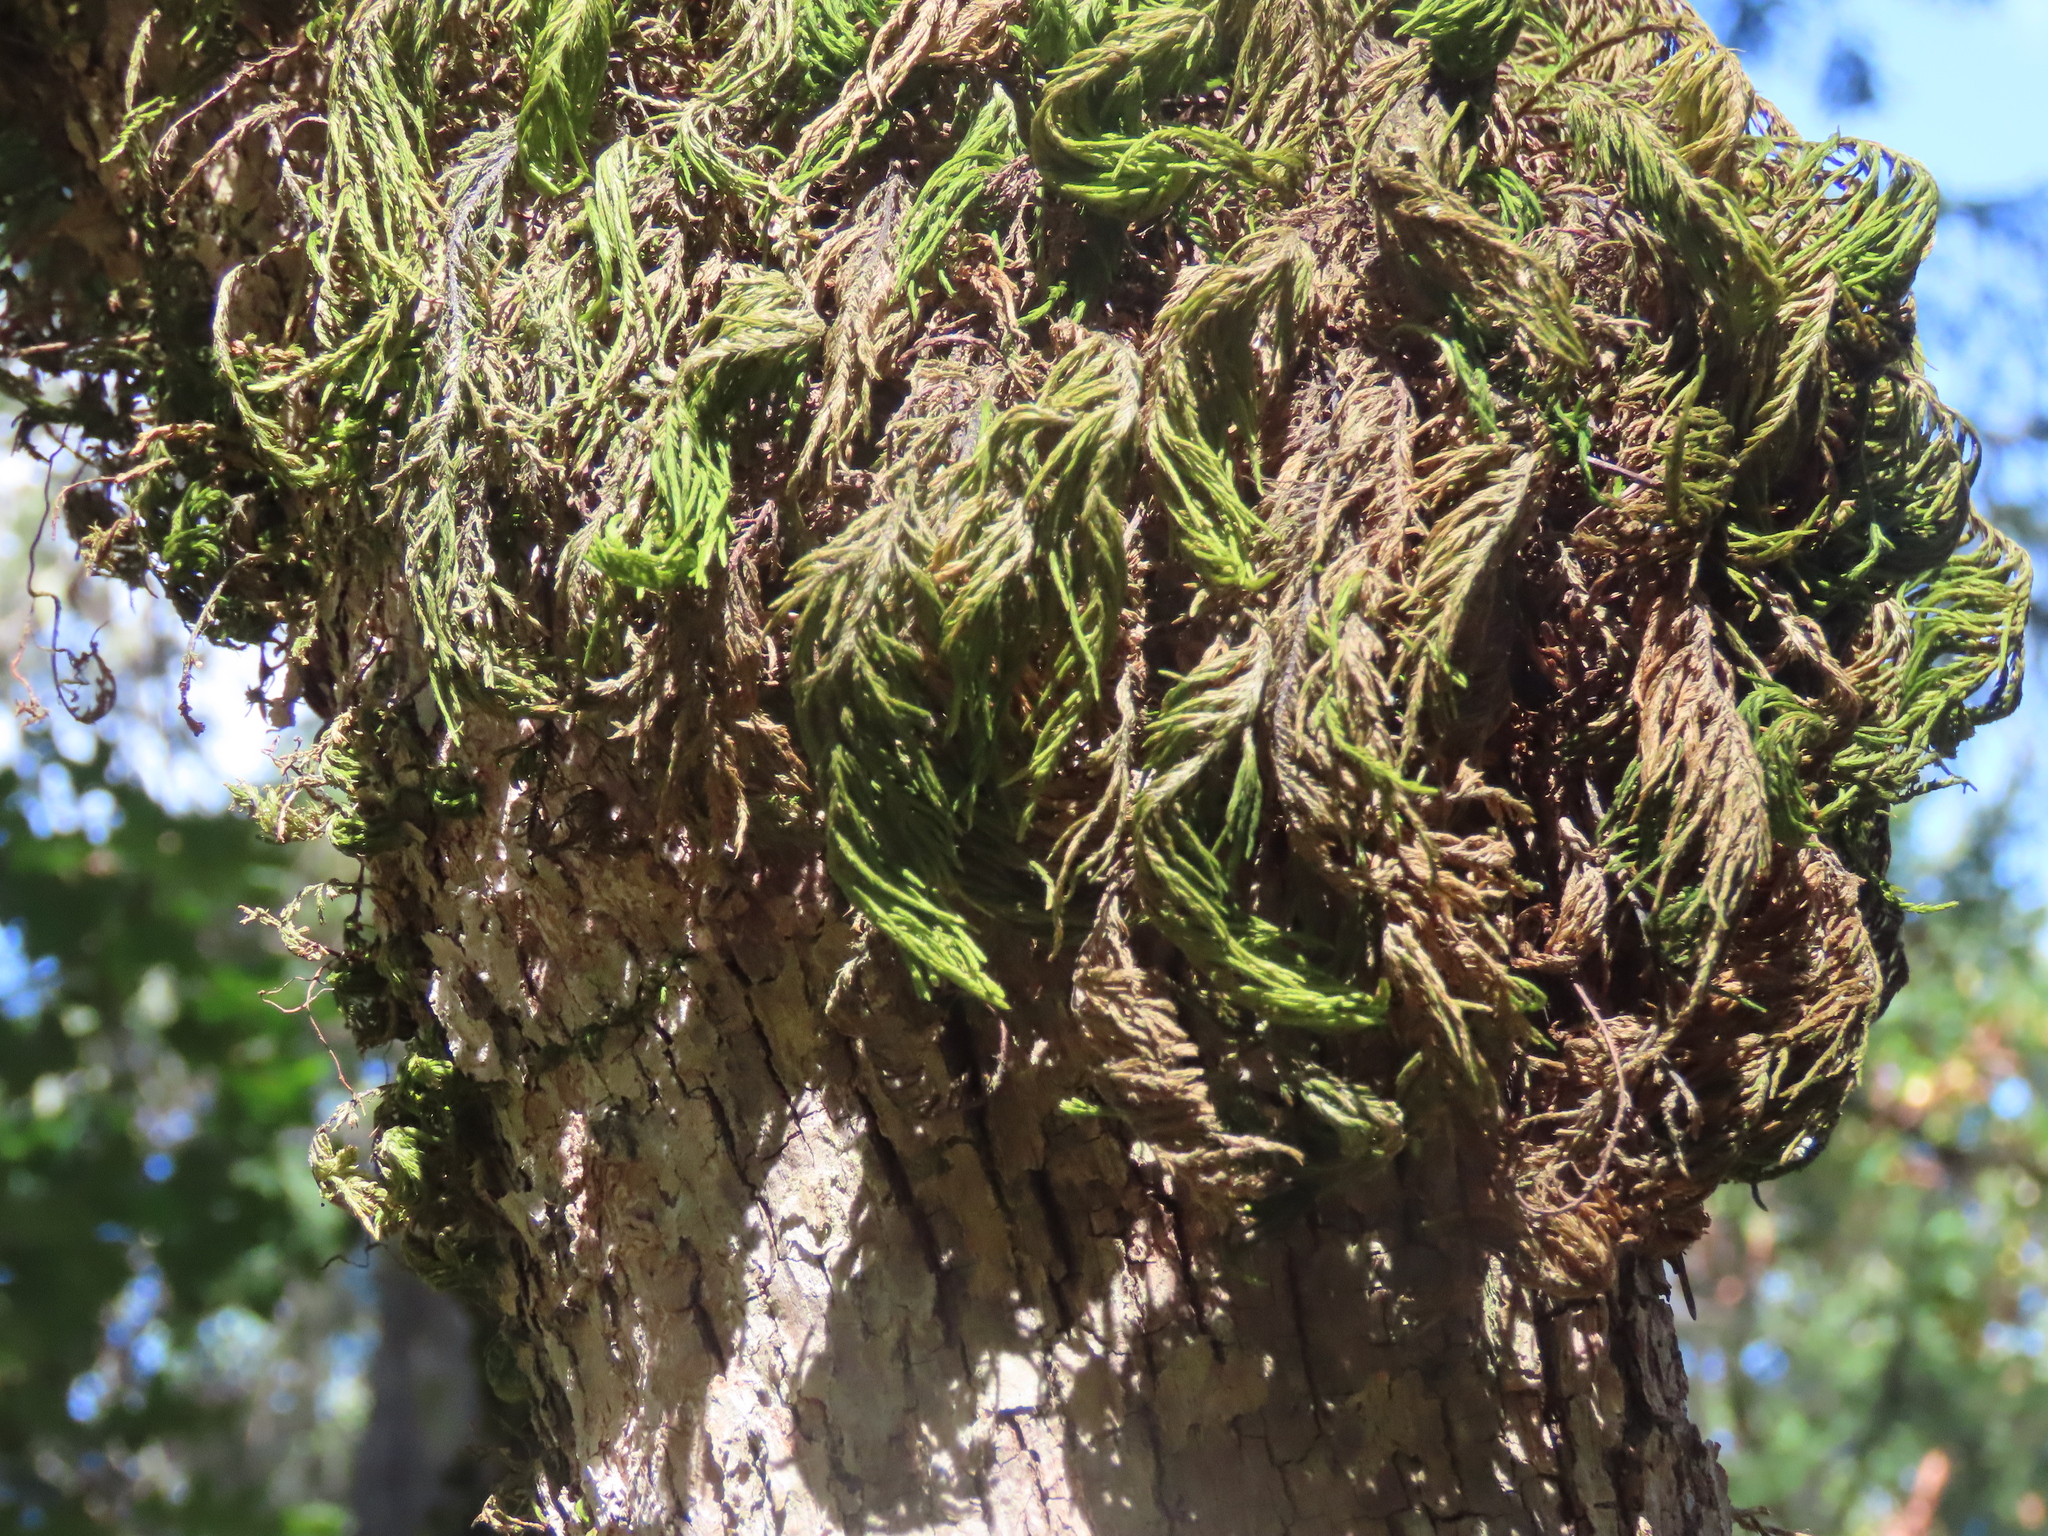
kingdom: Plantae
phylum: Bryophyta
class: Bryopsida
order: Hypnales
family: Cryphaeaceae
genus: Dendroalsia
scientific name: Dendroalsia abietina
